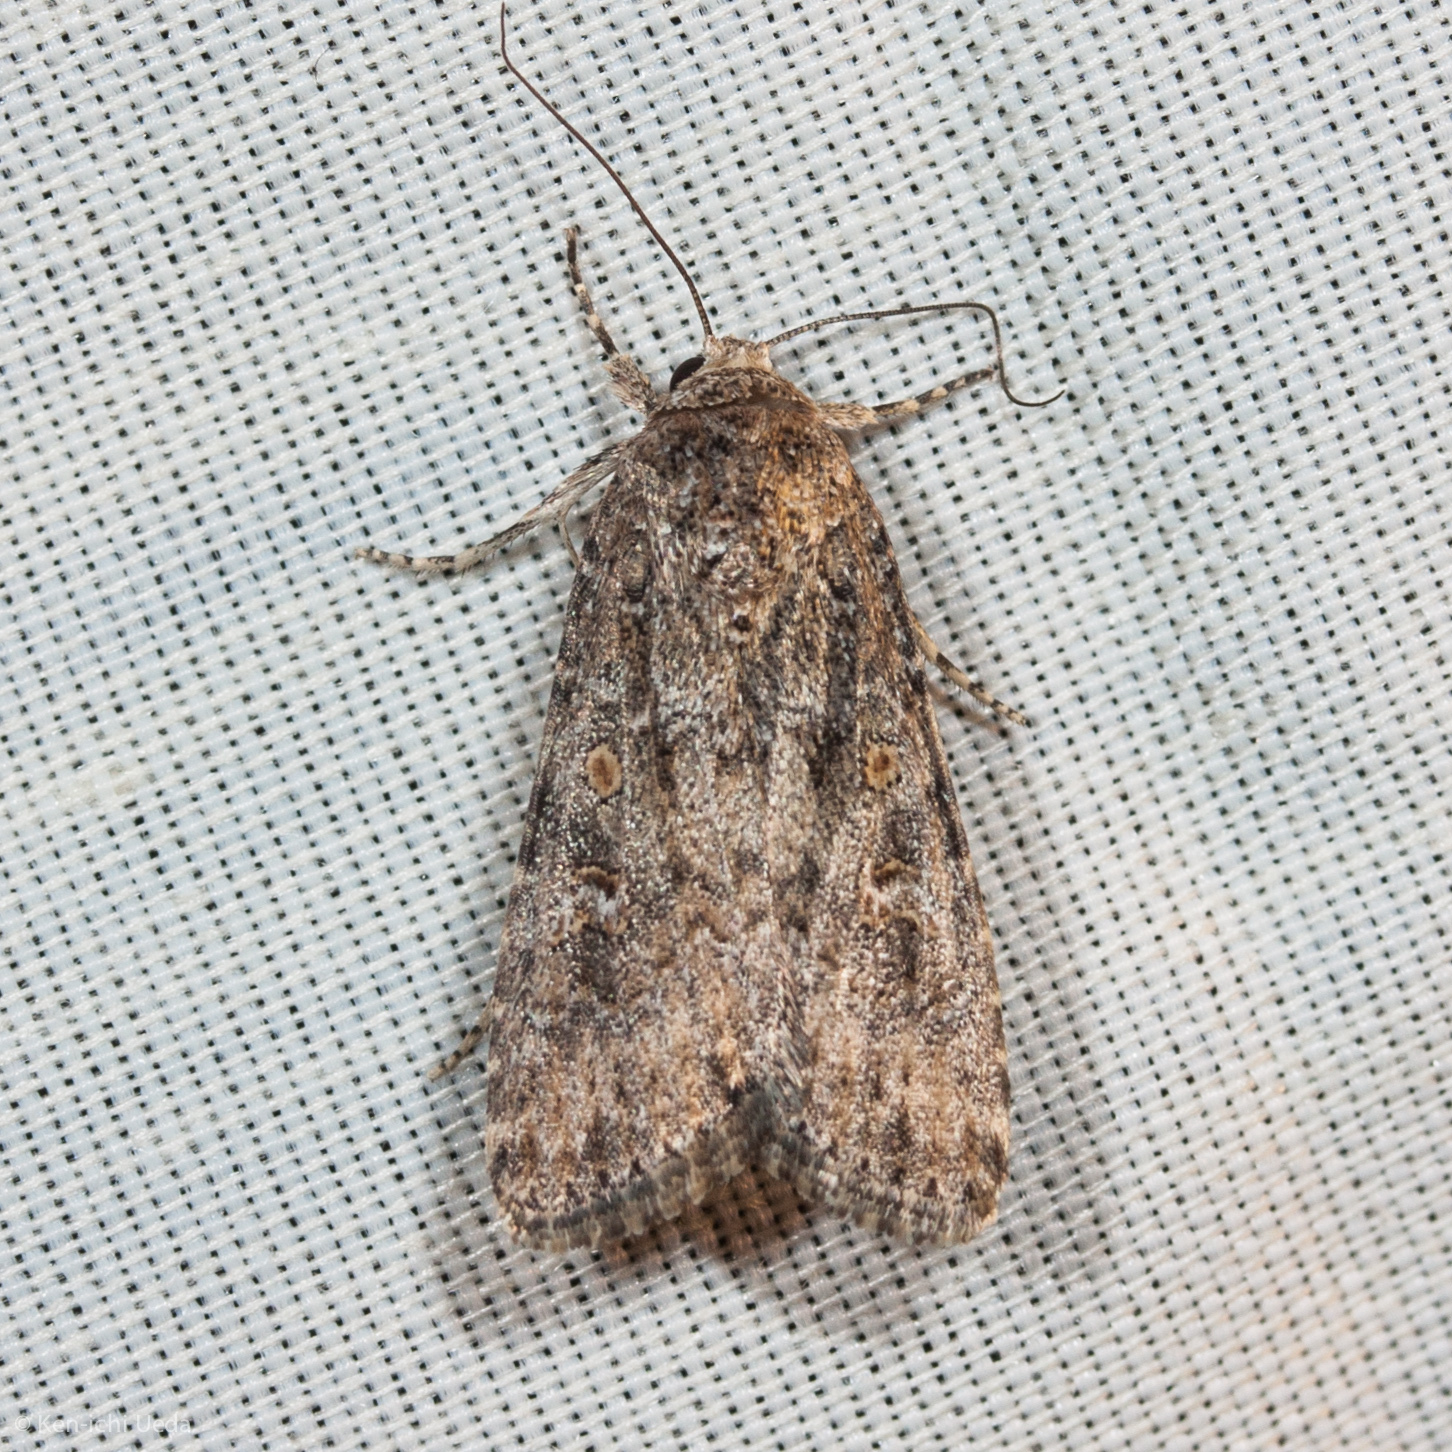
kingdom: Animalia
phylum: Arthropoda
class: Insecta
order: Lepidoptera
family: Noctuidae
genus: Spodoptera
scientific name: Spodoptera exigua
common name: Beet armyworm
